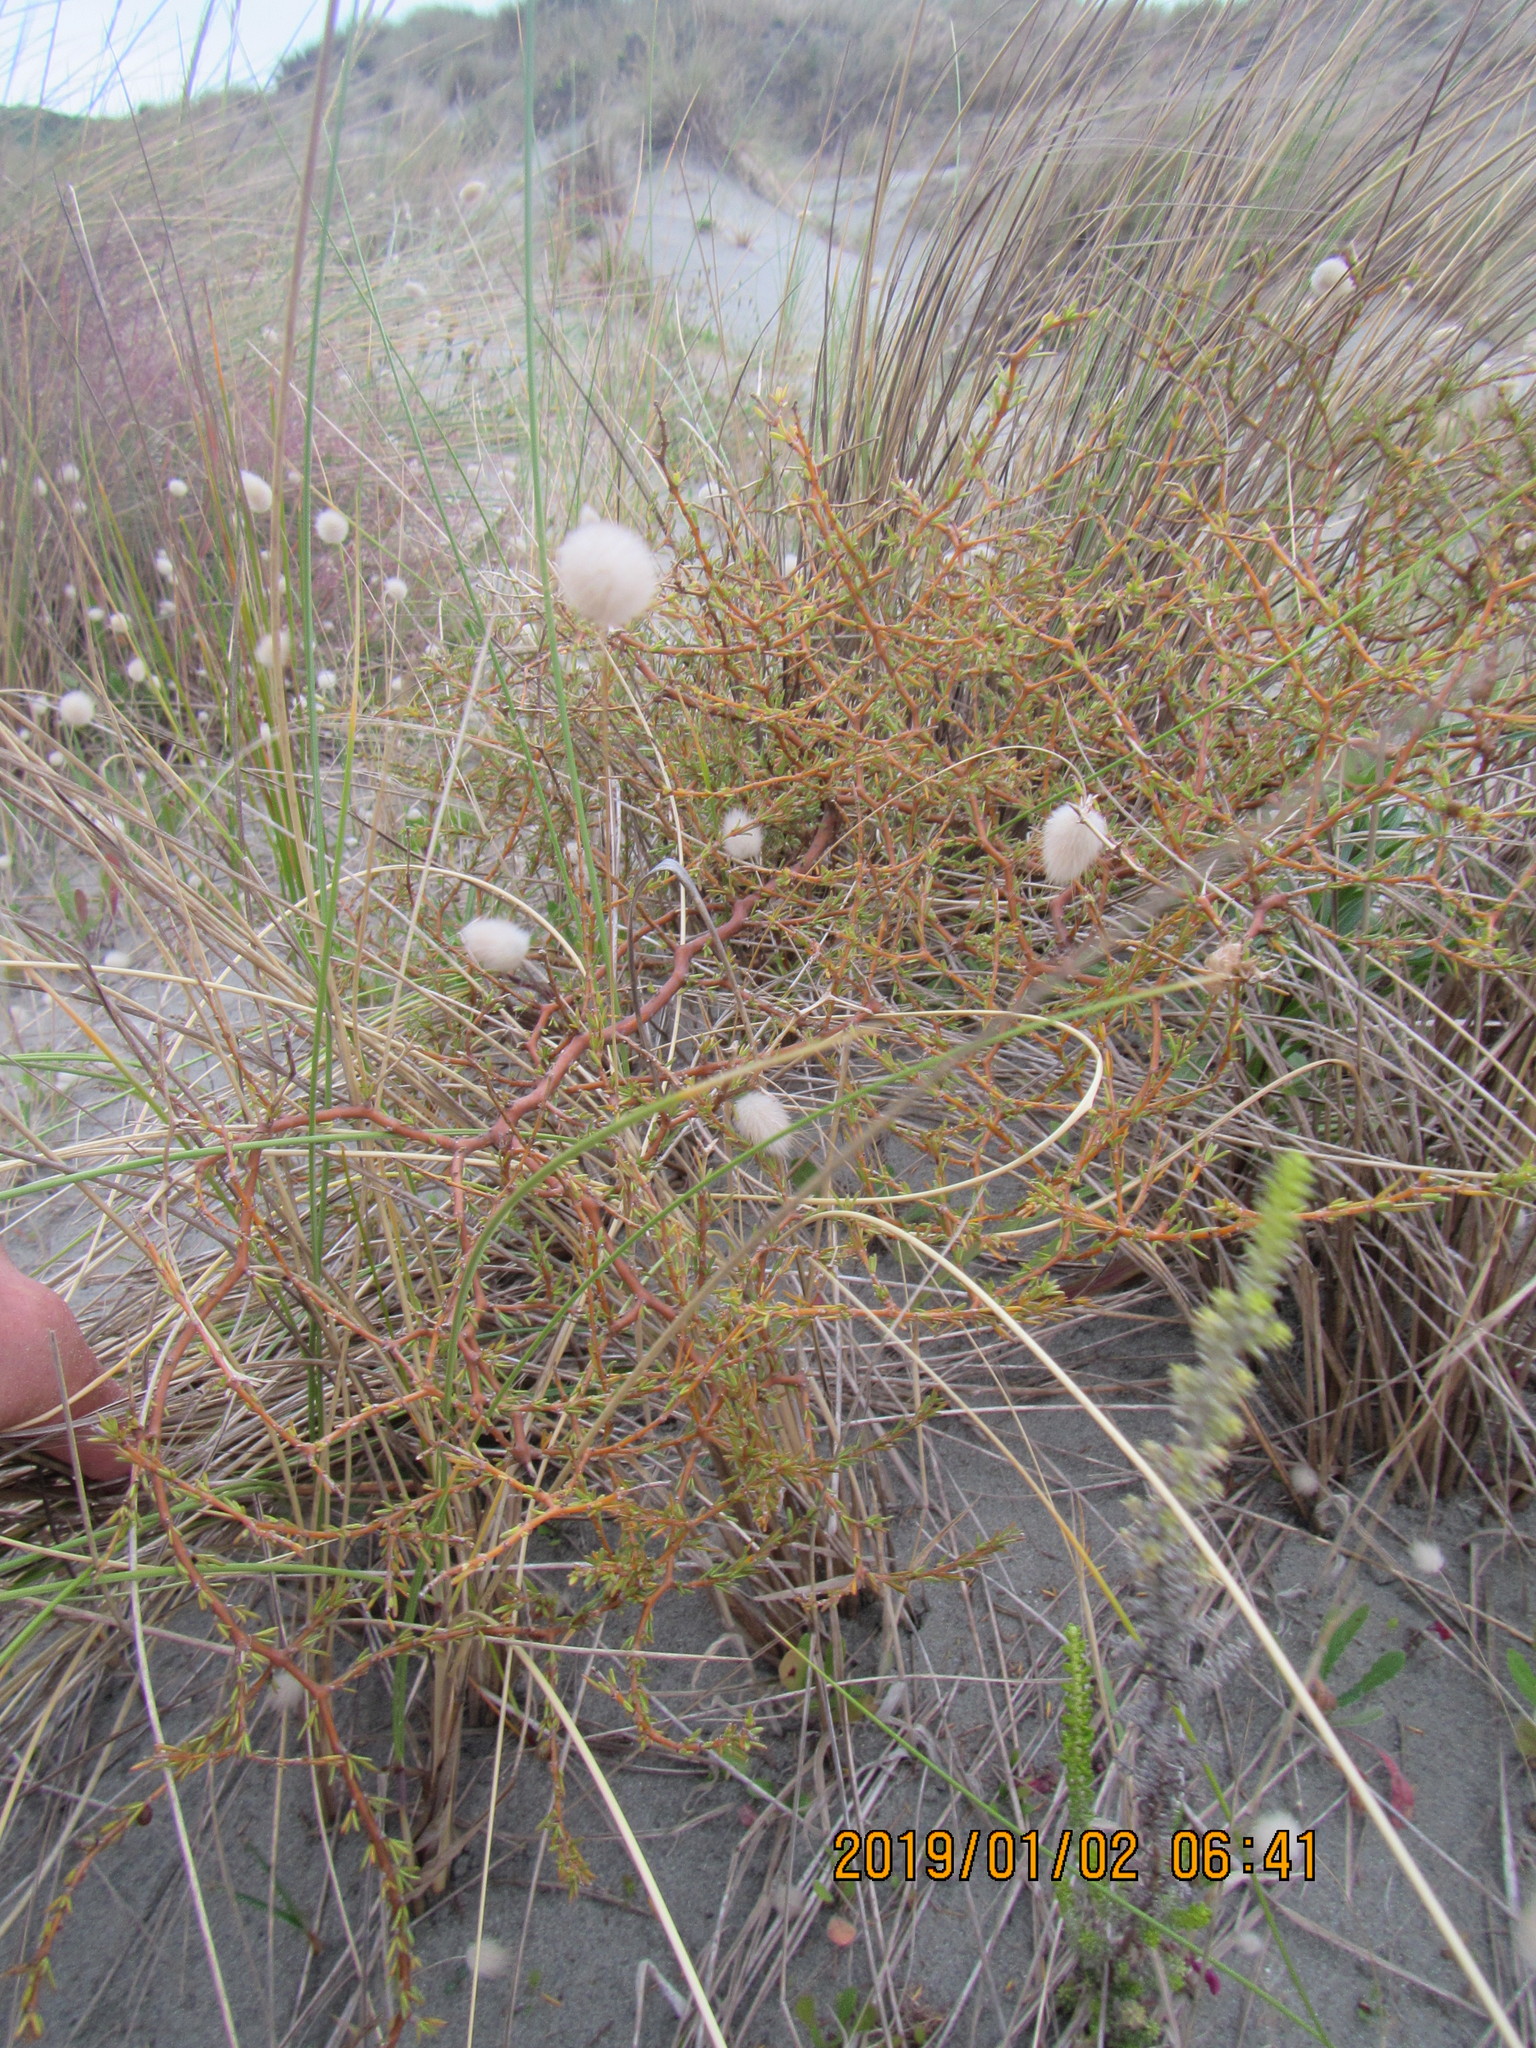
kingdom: Plantae
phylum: Tracheophyta
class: Magnoliopsida
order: Gentianales
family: Rubiaceae
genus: Coprosma
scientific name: Coprosma acerosa
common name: Sand coprosma
